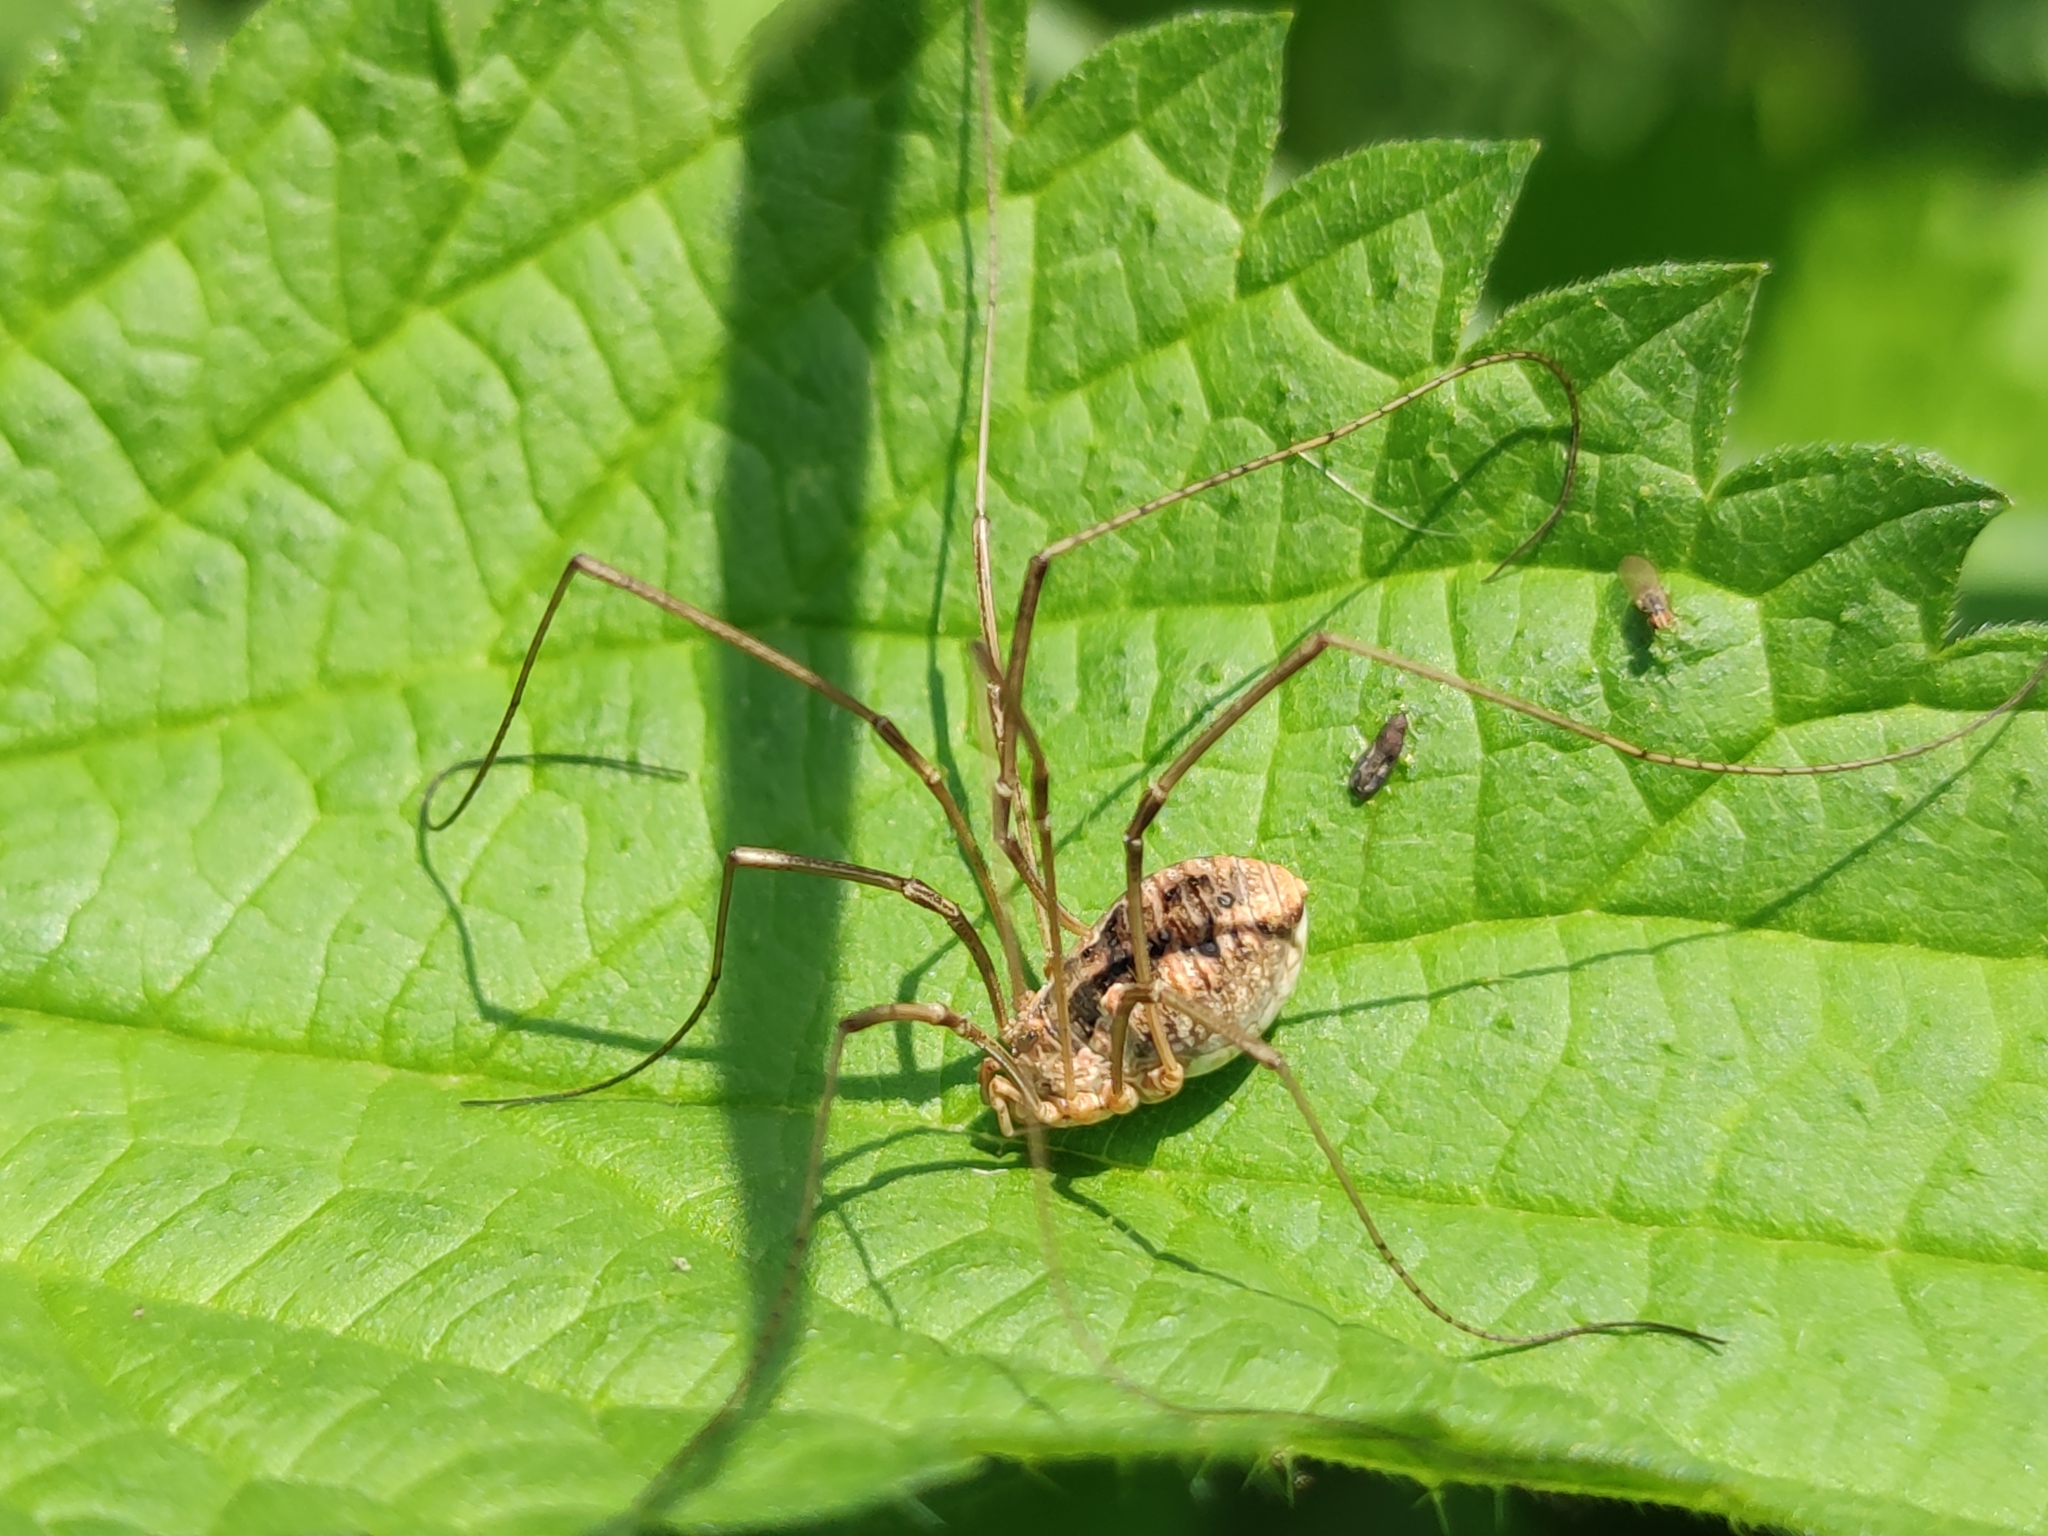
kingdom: Animalia
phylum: Arthropoda
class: Arachnida
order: Opiliones
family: Phalangiidae
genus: Phalangium
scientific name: Phalangium opilio
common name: Daddy longleg
